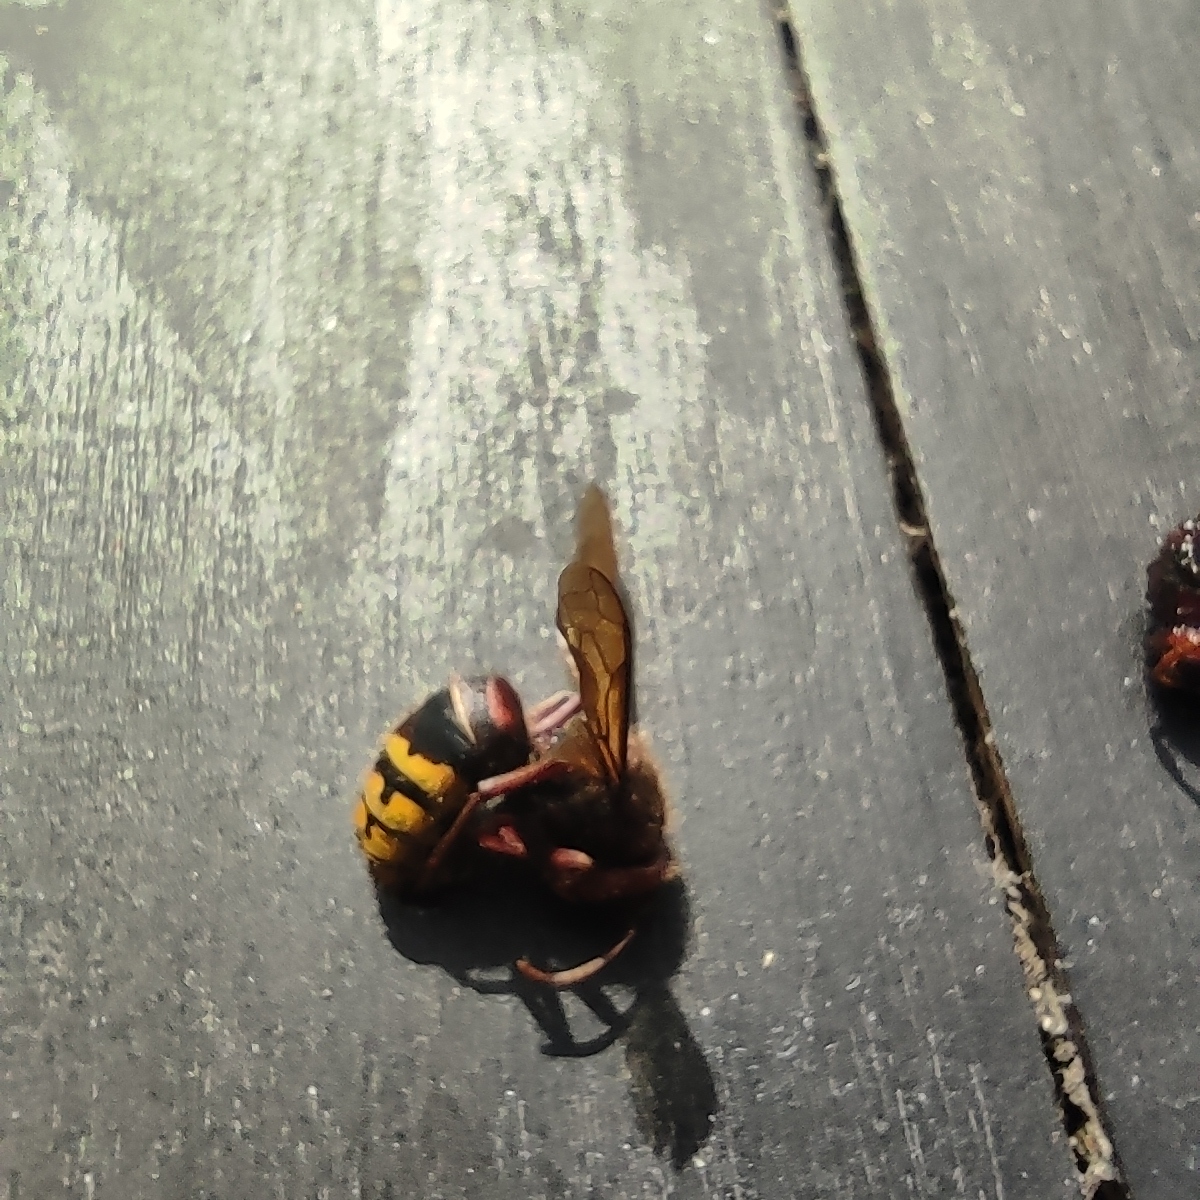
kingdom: Animalia
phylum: Arthropoda
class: Insecta
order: Hymenoptera
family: Vespidae
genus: Vespa
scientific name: Vespa crabro
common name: Hornet
